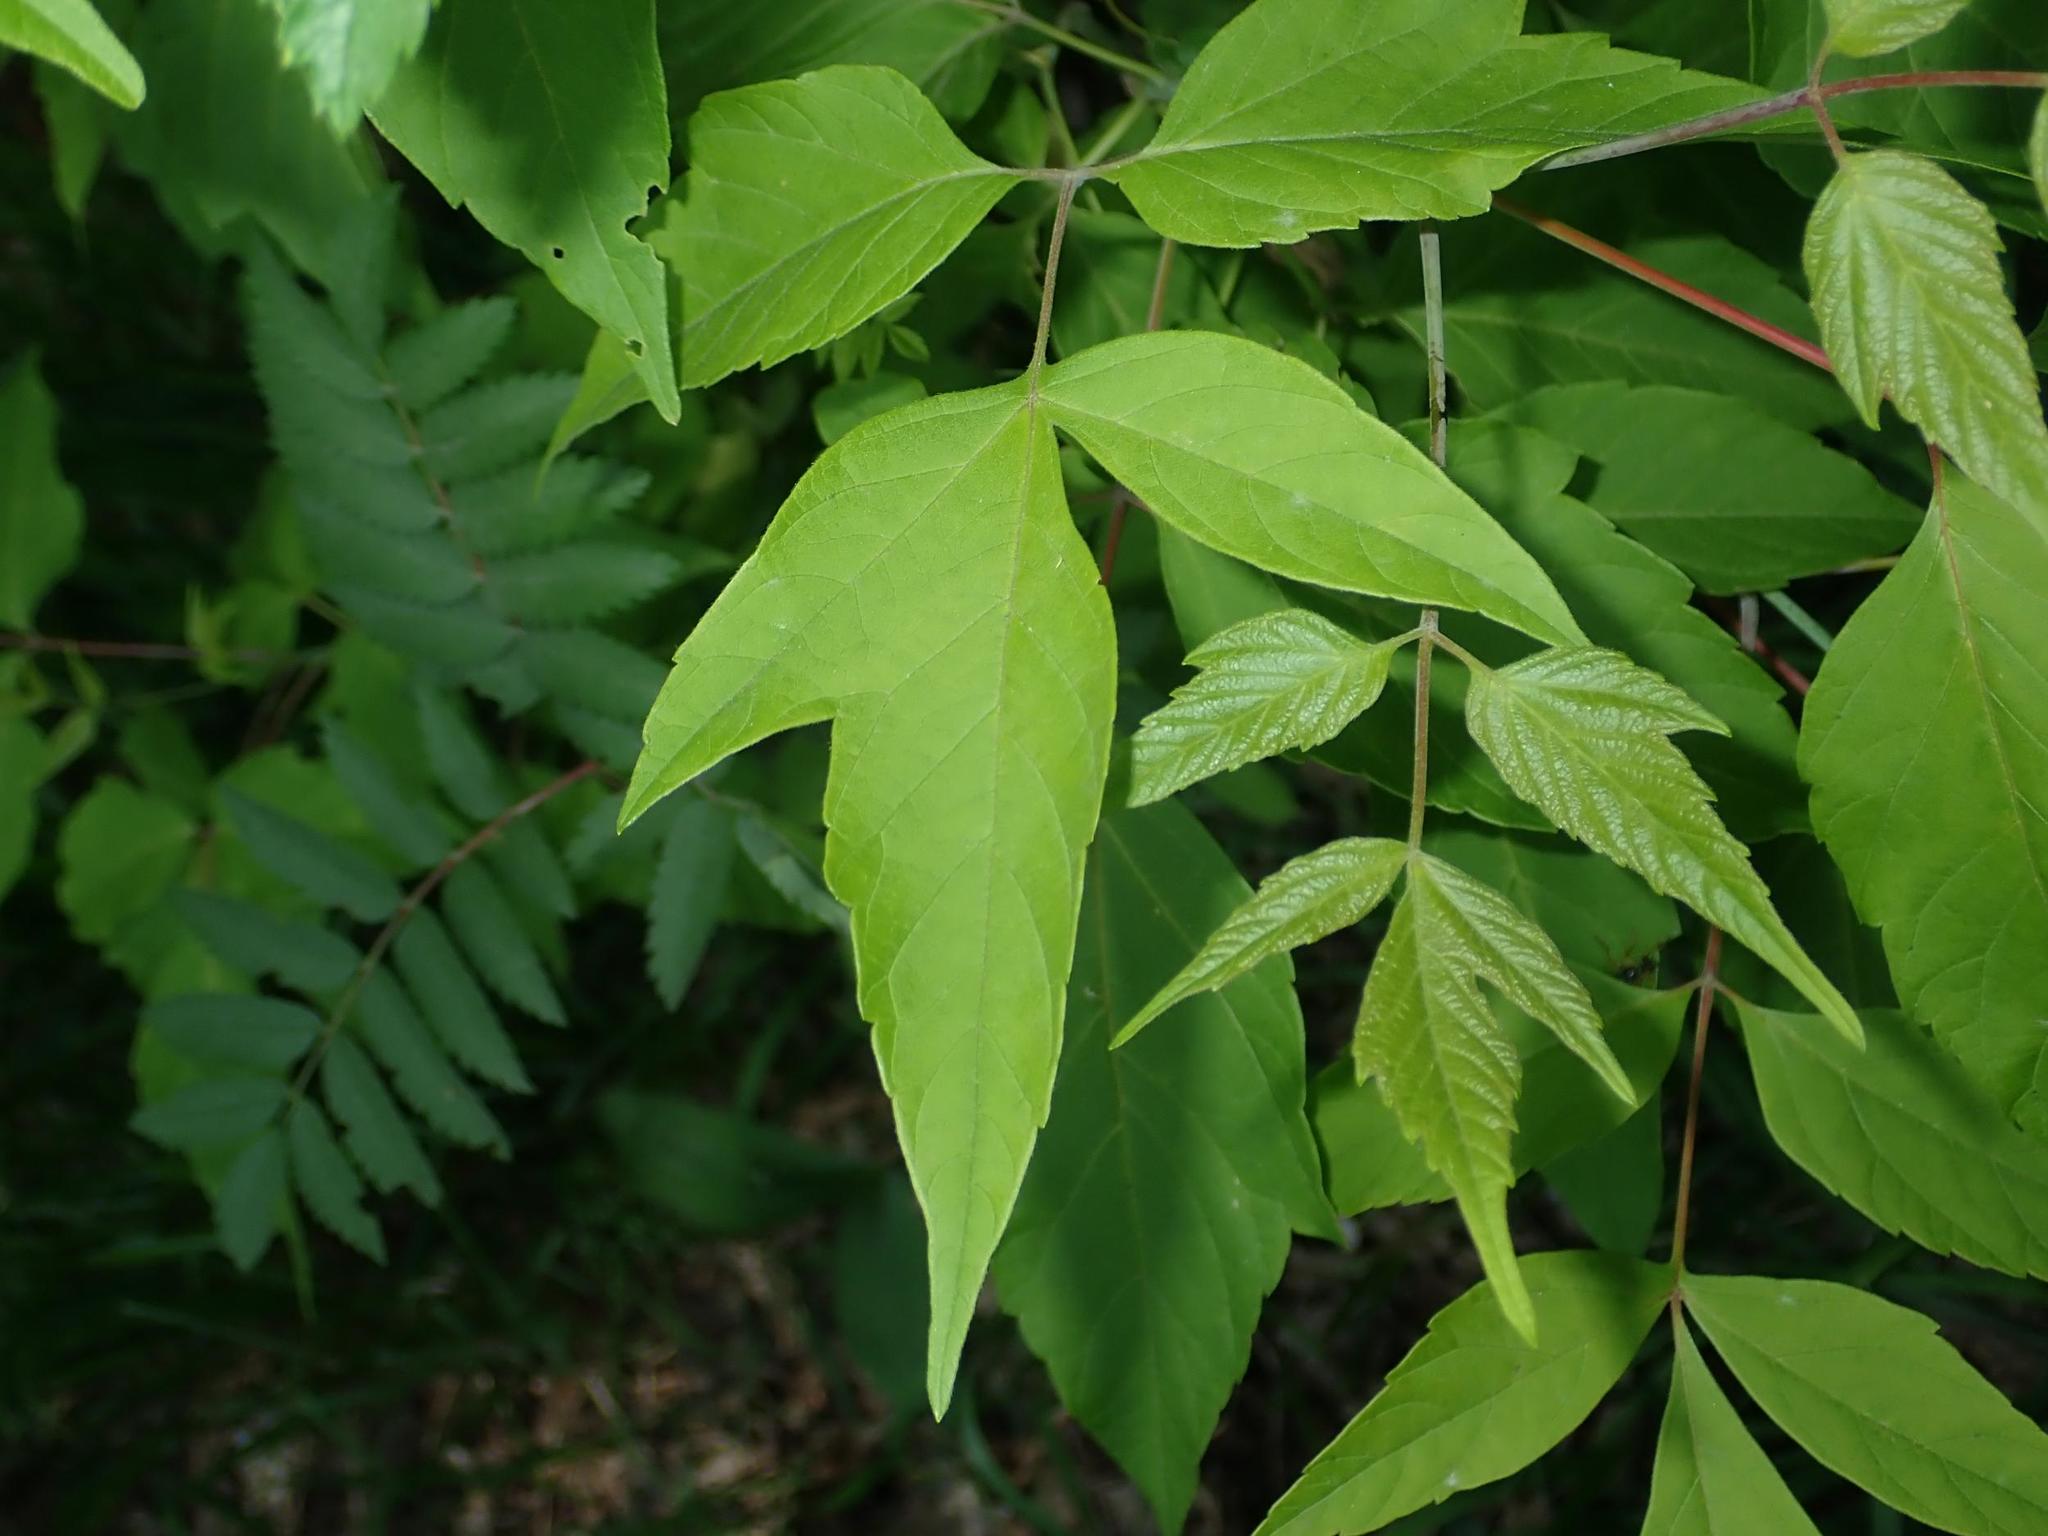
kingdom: Plantae
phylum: Tracheophyta
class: Magnoliopsida
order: Sapindales
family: Sapindaceae
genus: Acer
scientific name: Acer negundo
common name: Ashleaf maple
